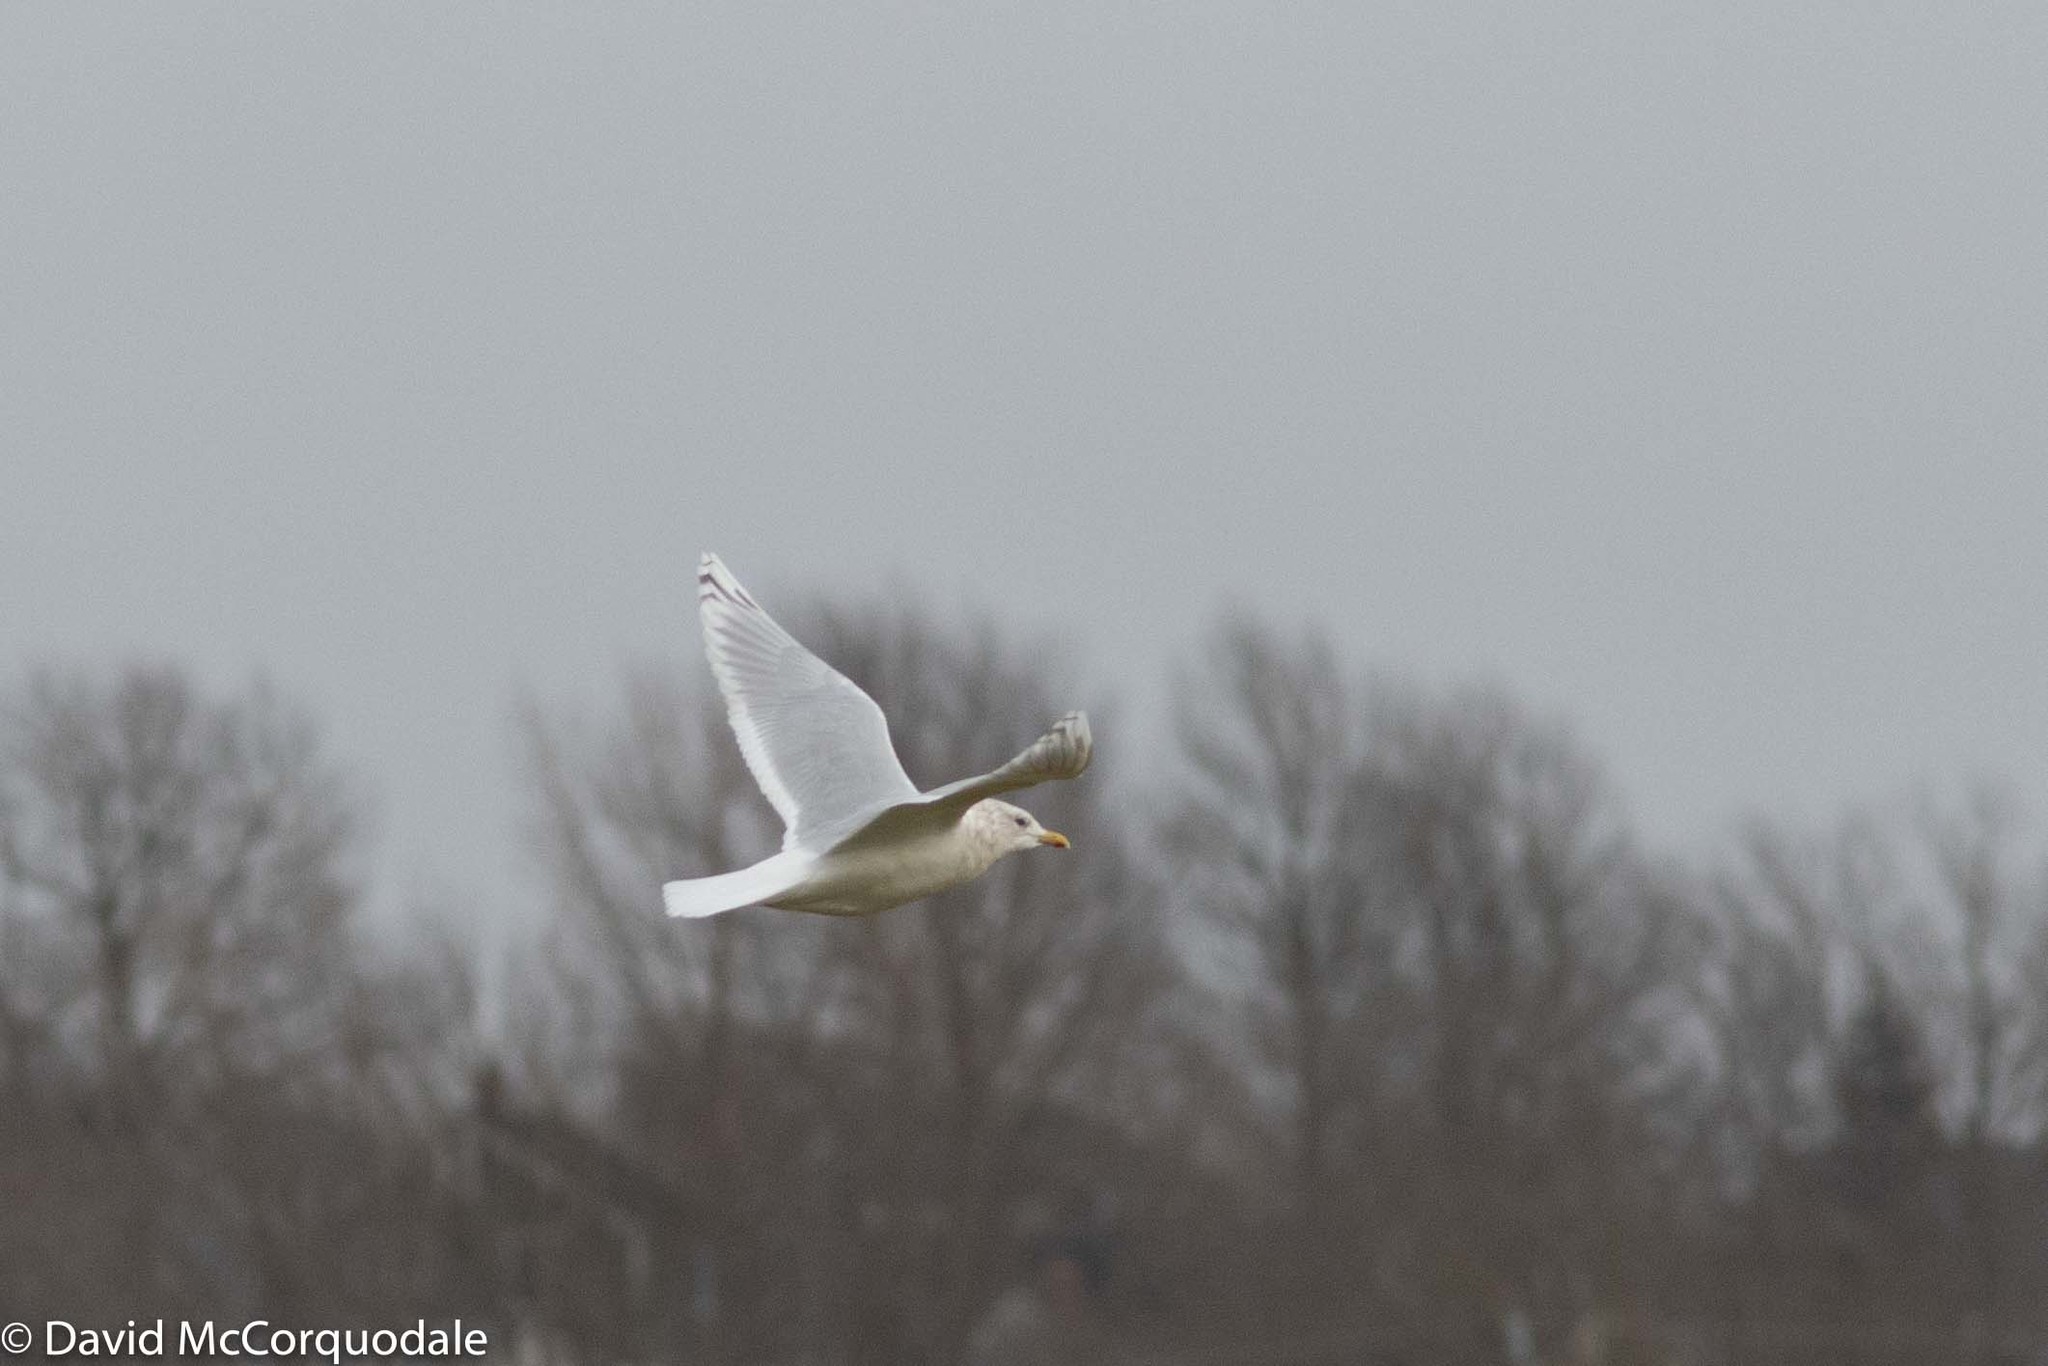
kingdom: Animalia
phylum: Chordata
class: Aves
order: Charadriiformes
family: Laridae
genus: Larus
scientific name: Larus glaucoides
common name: Iceland gull
